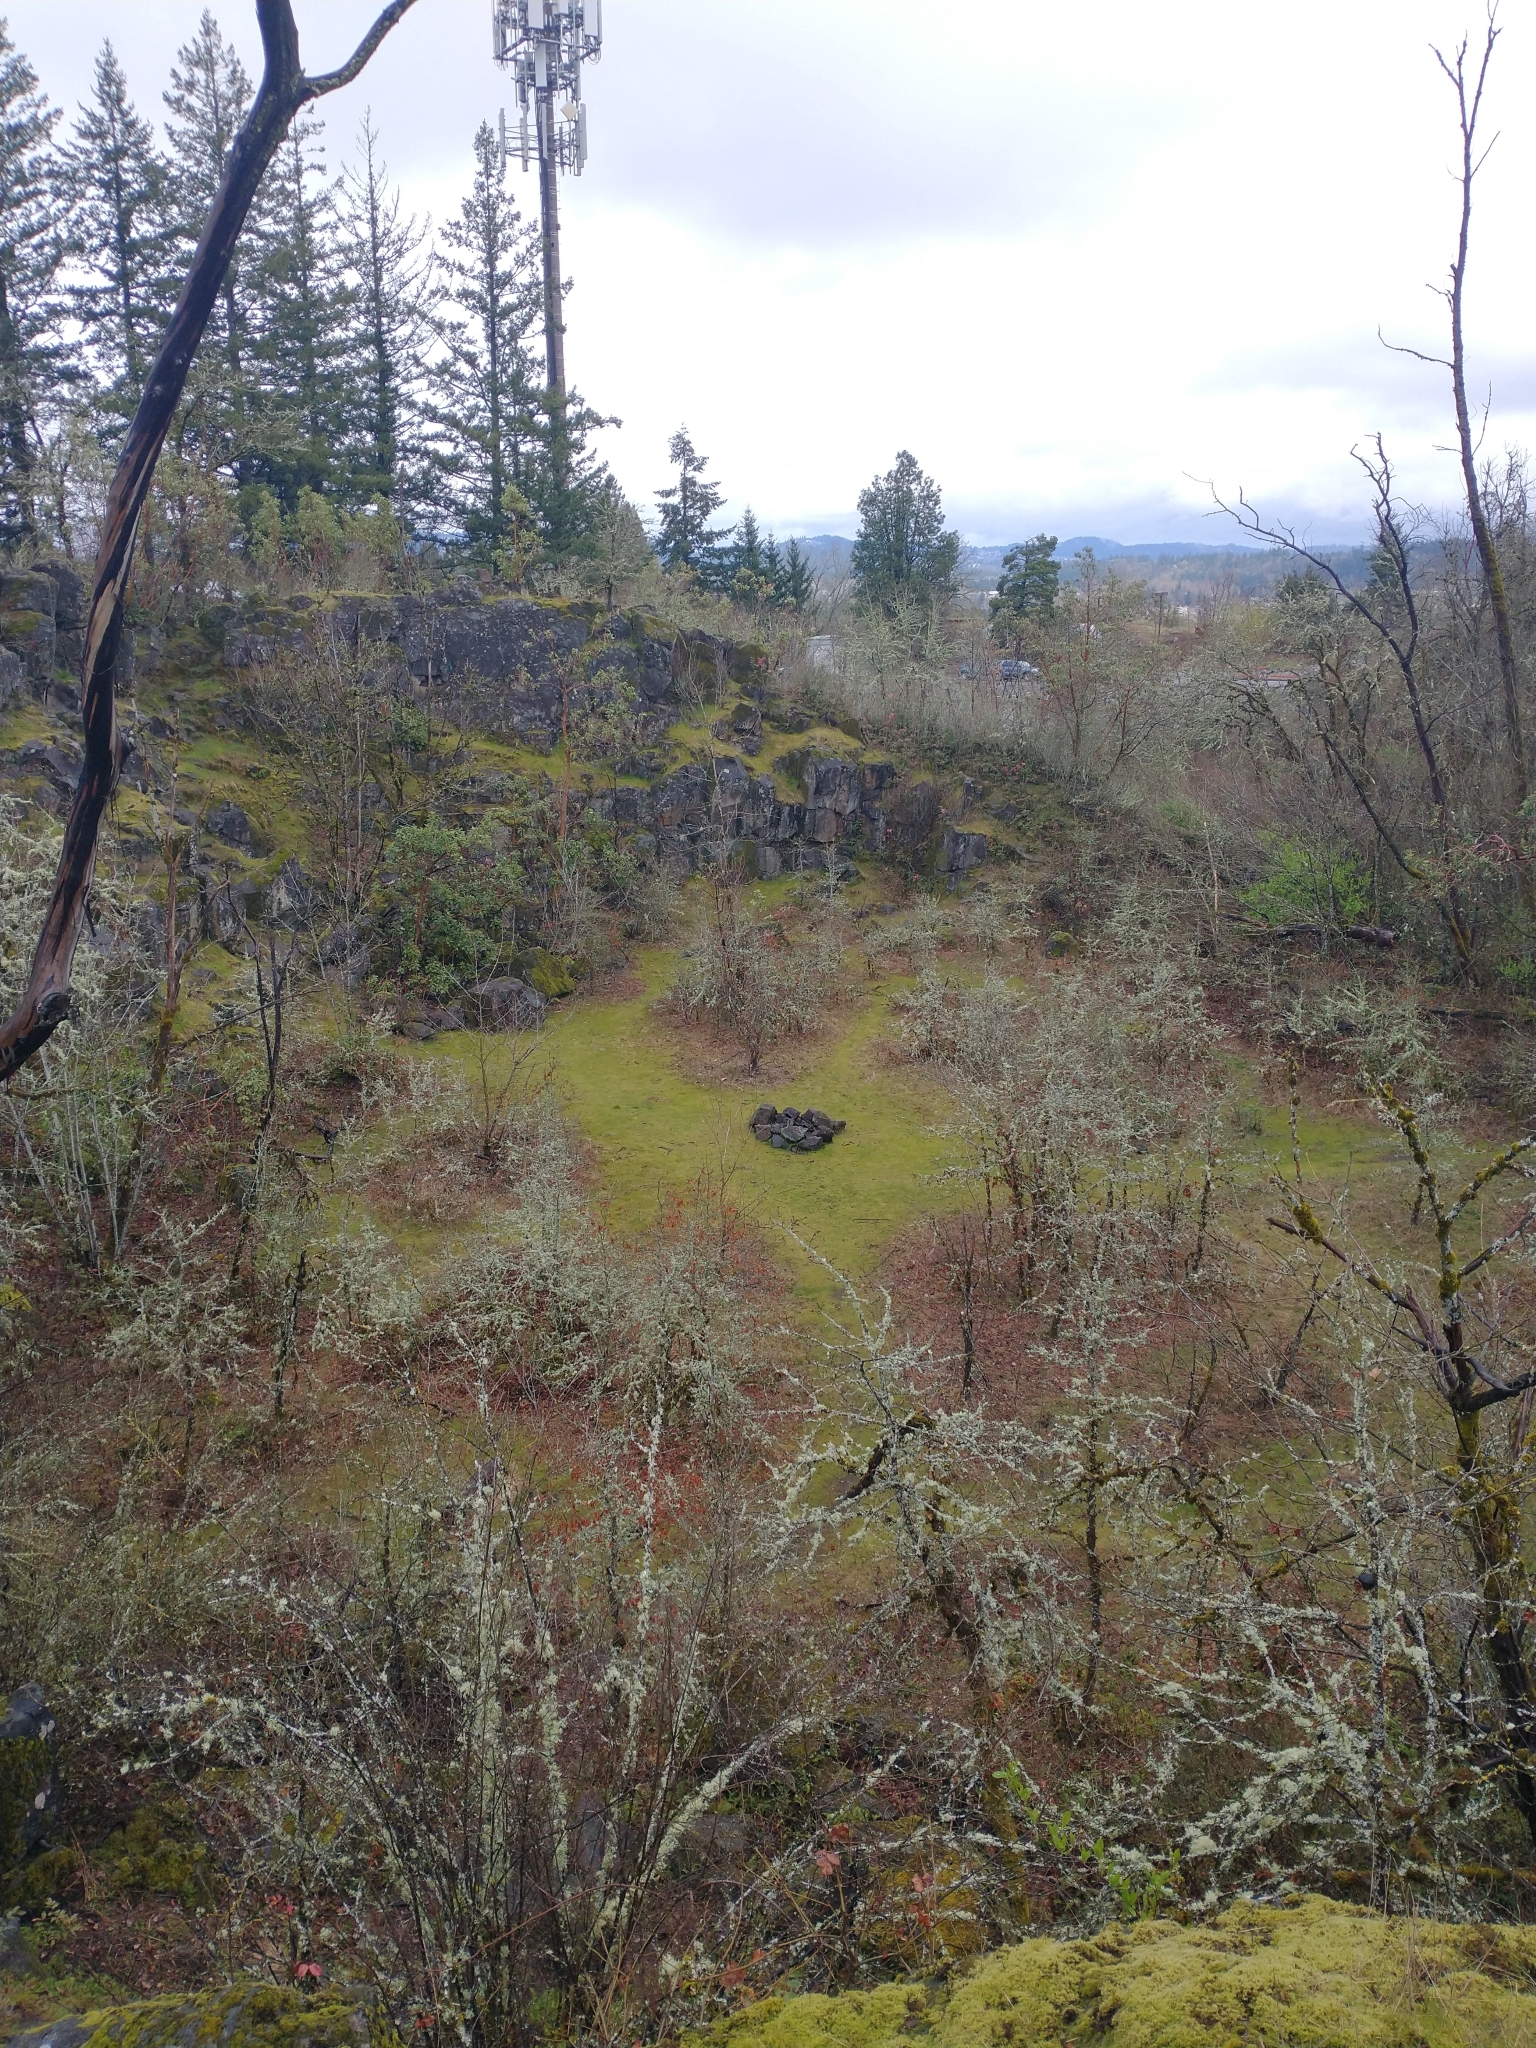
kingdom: Plantae
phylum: Tracheophyta
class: Magnoliopsida
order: Fagales
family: Fagaceae
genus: Quercus
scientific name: Quercus garryana
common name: Garry oak
